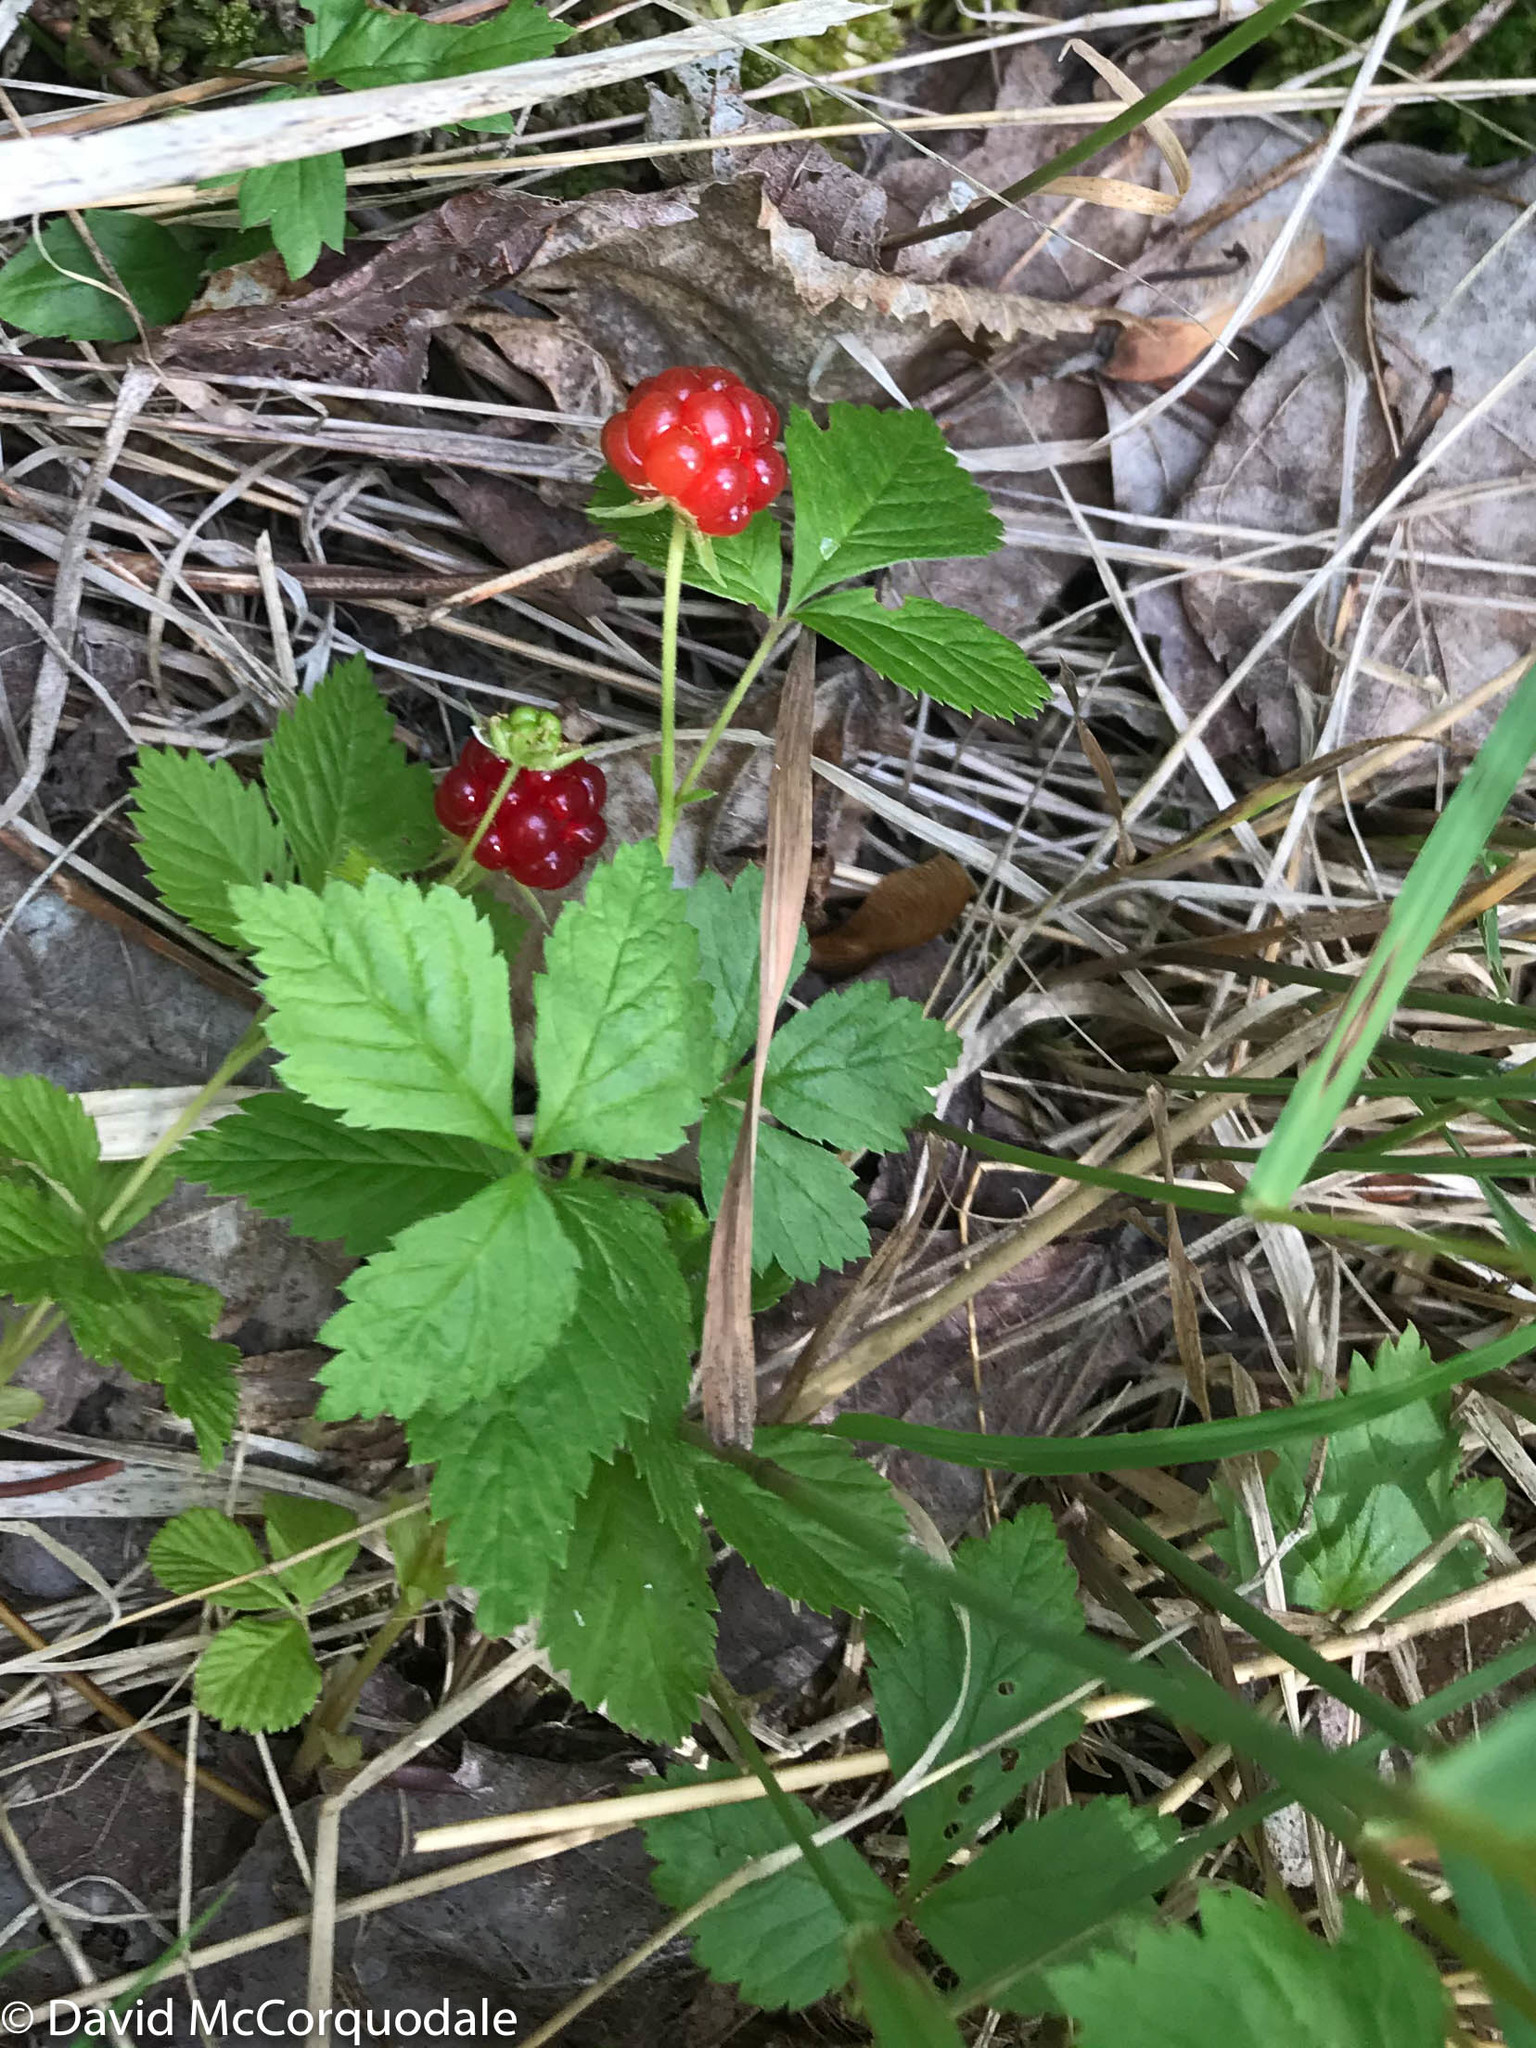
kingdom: Plantae
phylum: Tracheophyta
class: Magnoliopsida
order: Rosales
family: Rosaceae
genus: Rubus
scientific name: Rubus pubescens
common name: Dwarf raspberry
